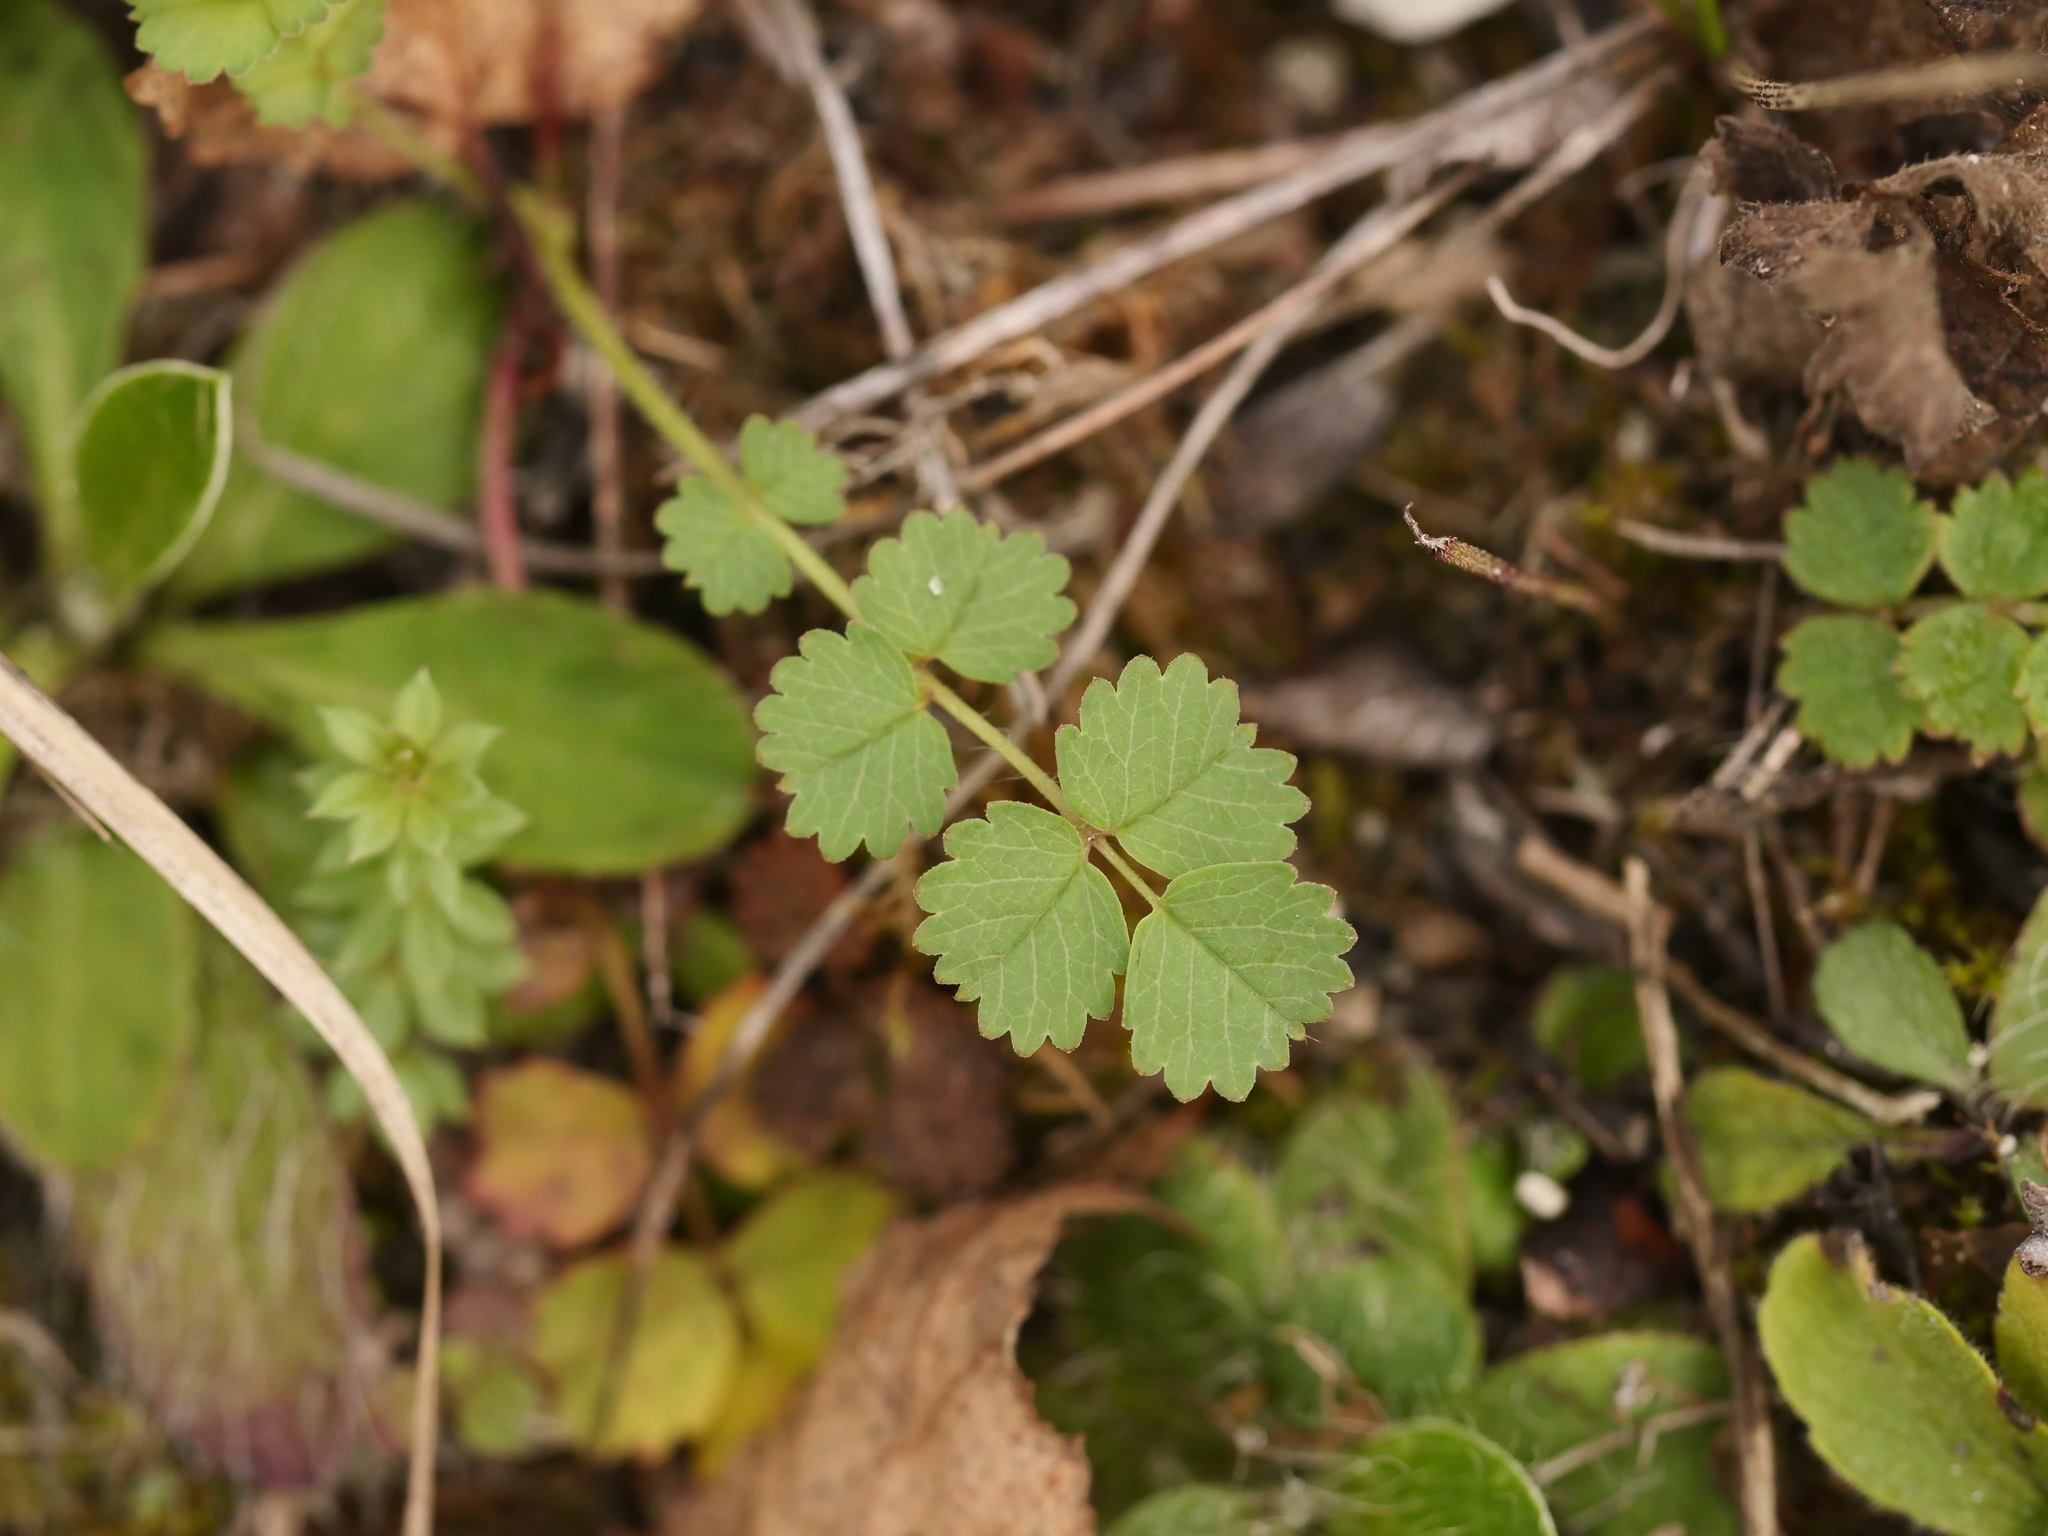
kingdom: Plantae
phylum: Tracheophyta
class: Magnoliopsida
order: Rosales
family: Rosaceae
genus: Poterium
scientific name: Poterium sanguisorba
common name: Salad burnet
